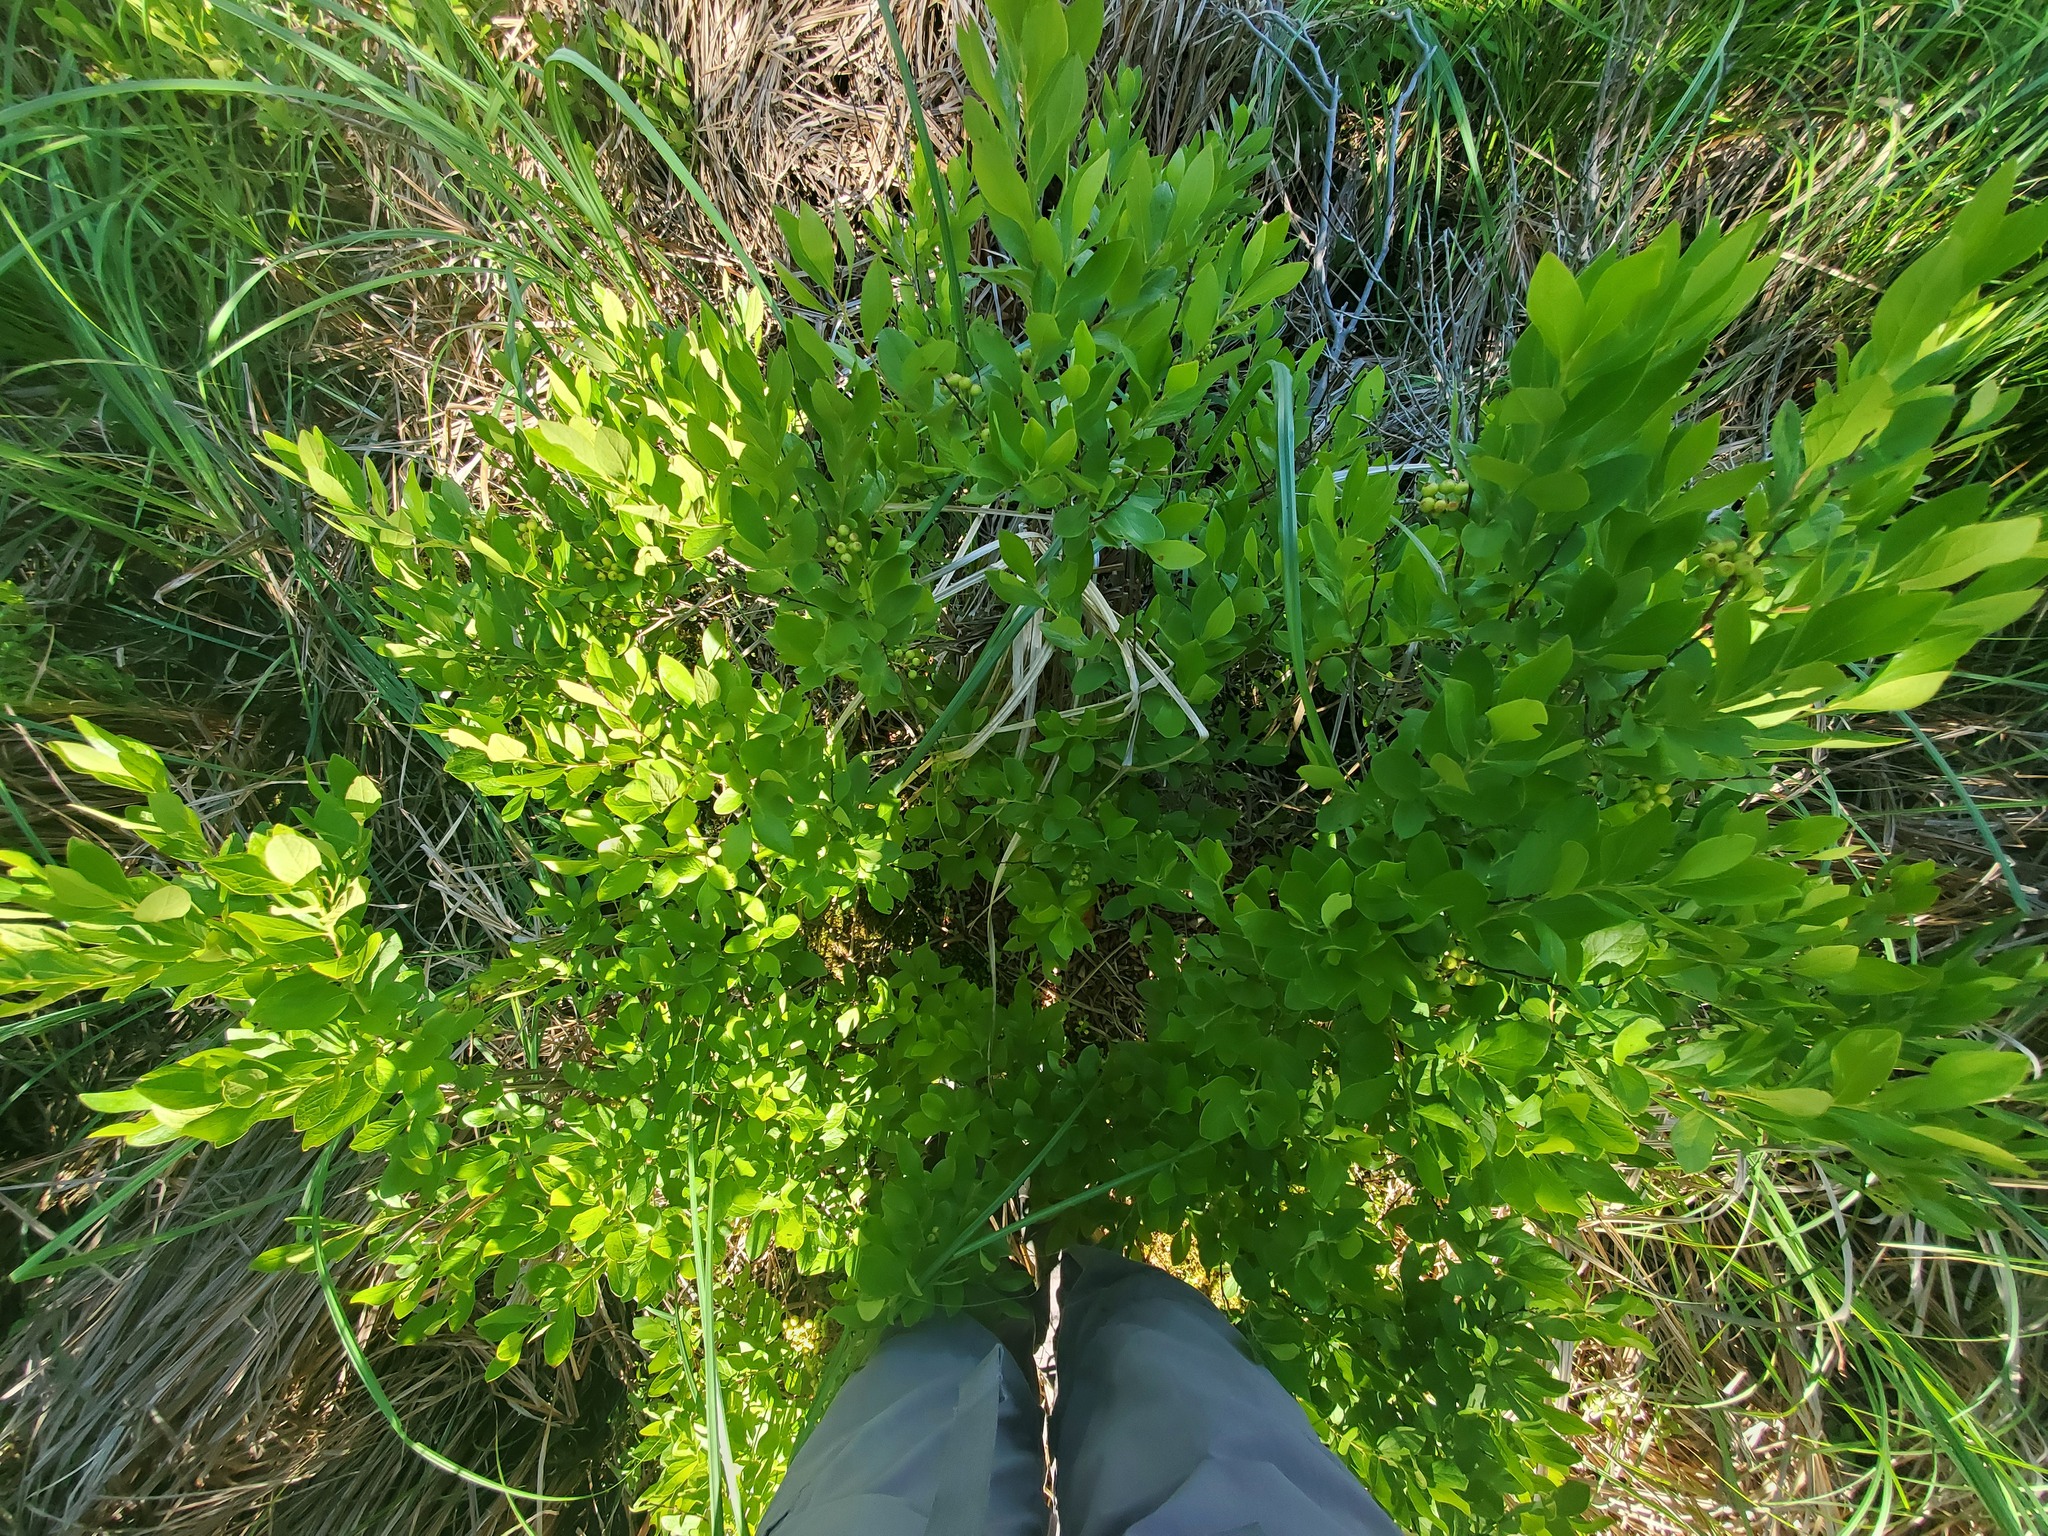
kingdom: Plantae
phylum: Tracheophyta
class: Magnoliopsida
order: Ericales
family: Ericaceae
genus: Gaylussacia
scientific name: Gaylussacia baccata
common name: Black huckleberry
